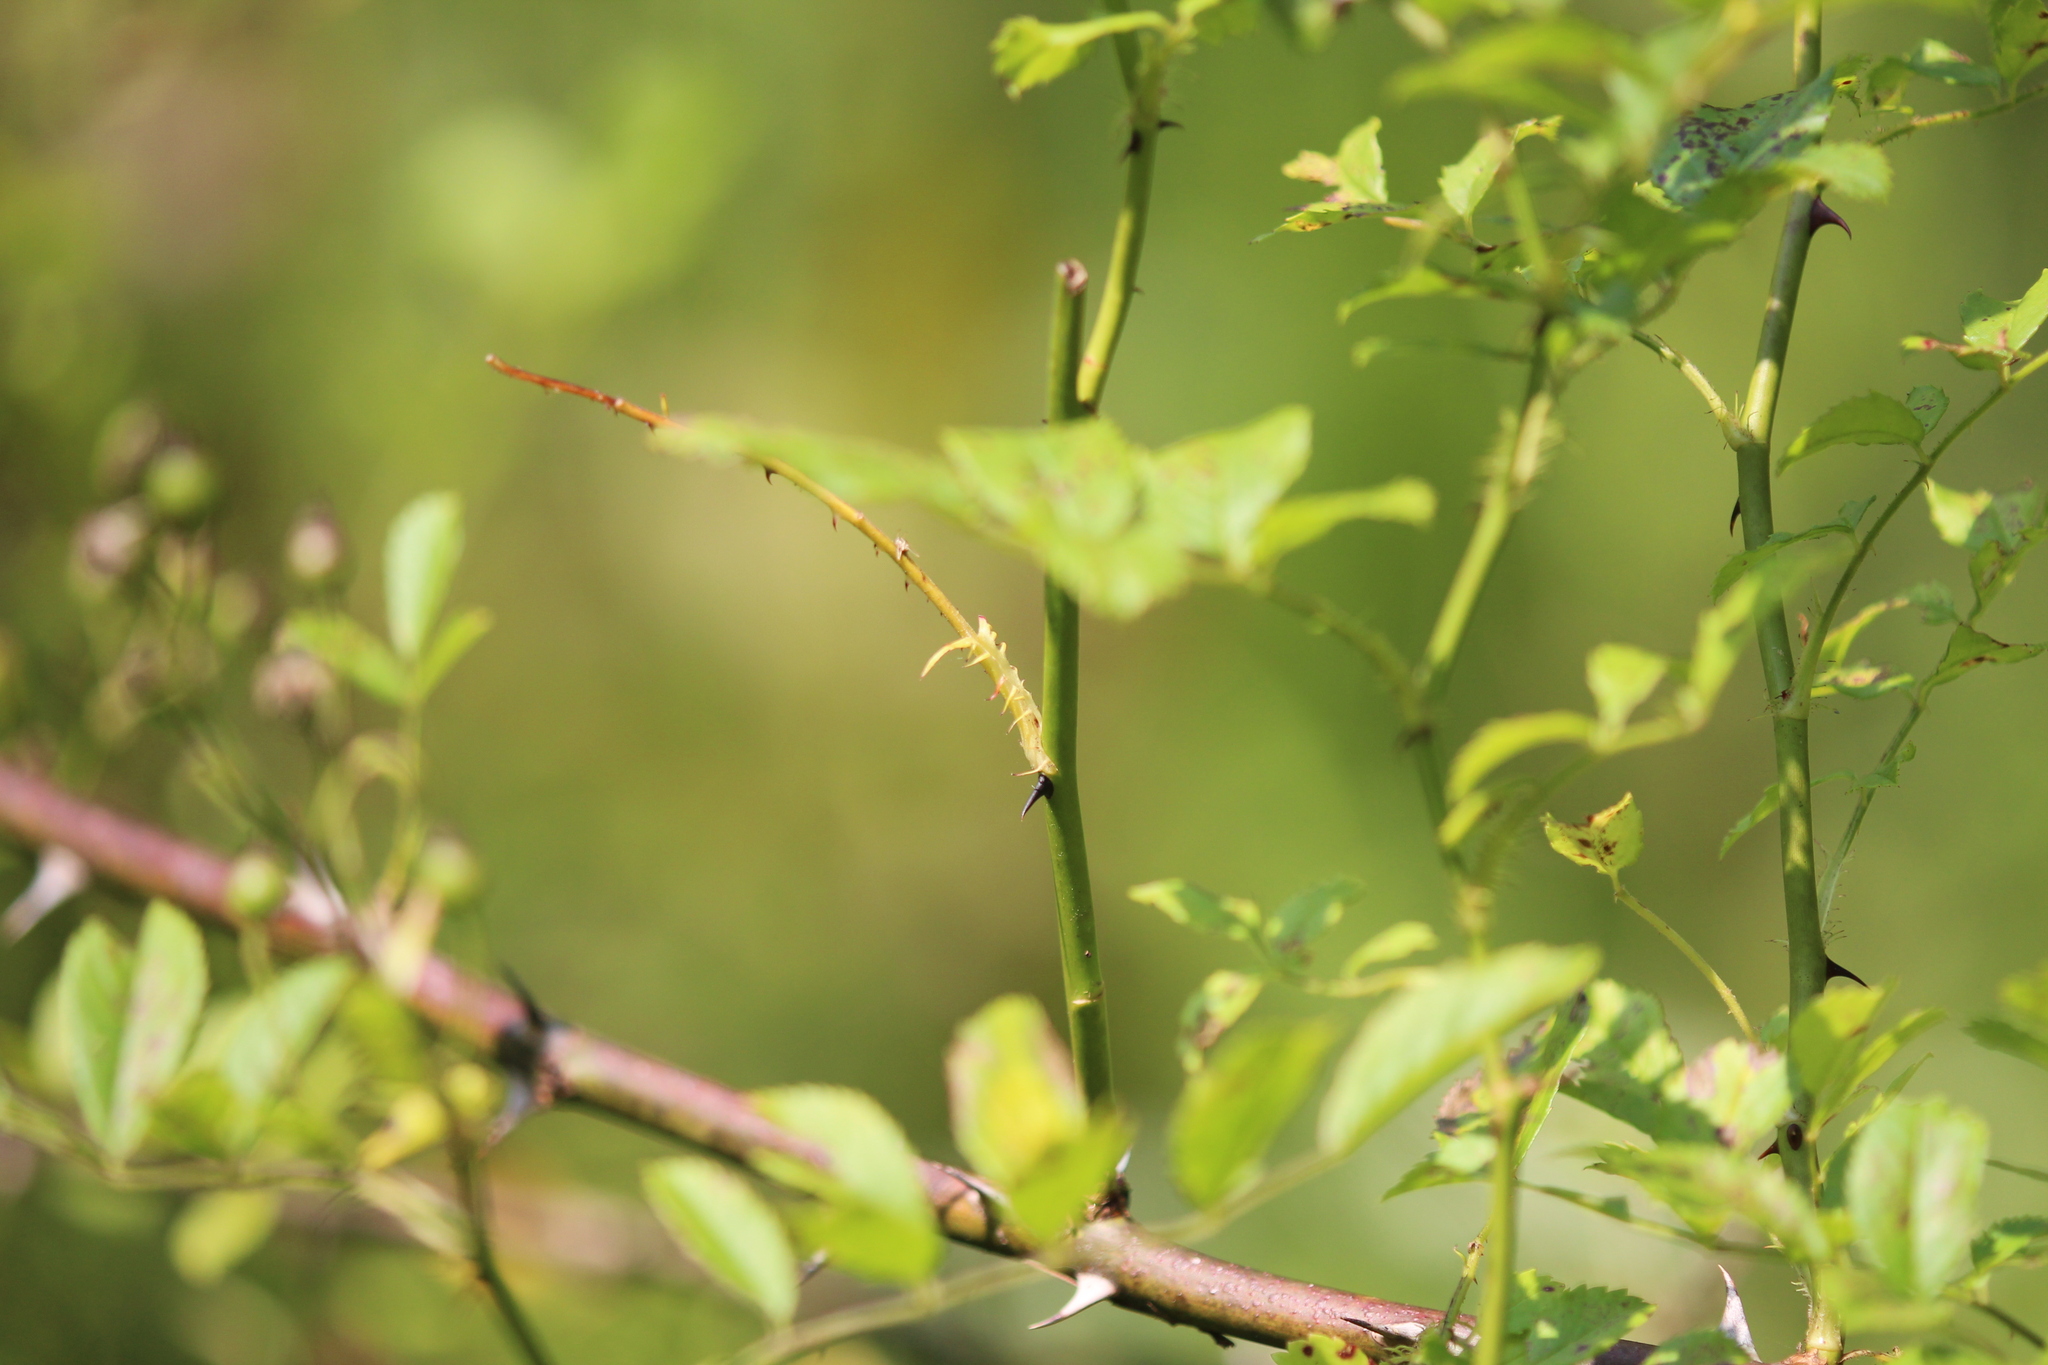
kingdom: Plantae
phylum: Tracheophyta
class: Magnoliopsida
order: Rosales
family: Rosaceae
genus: Rosa
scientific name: Rosa multiflora
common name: Multiflora rose
